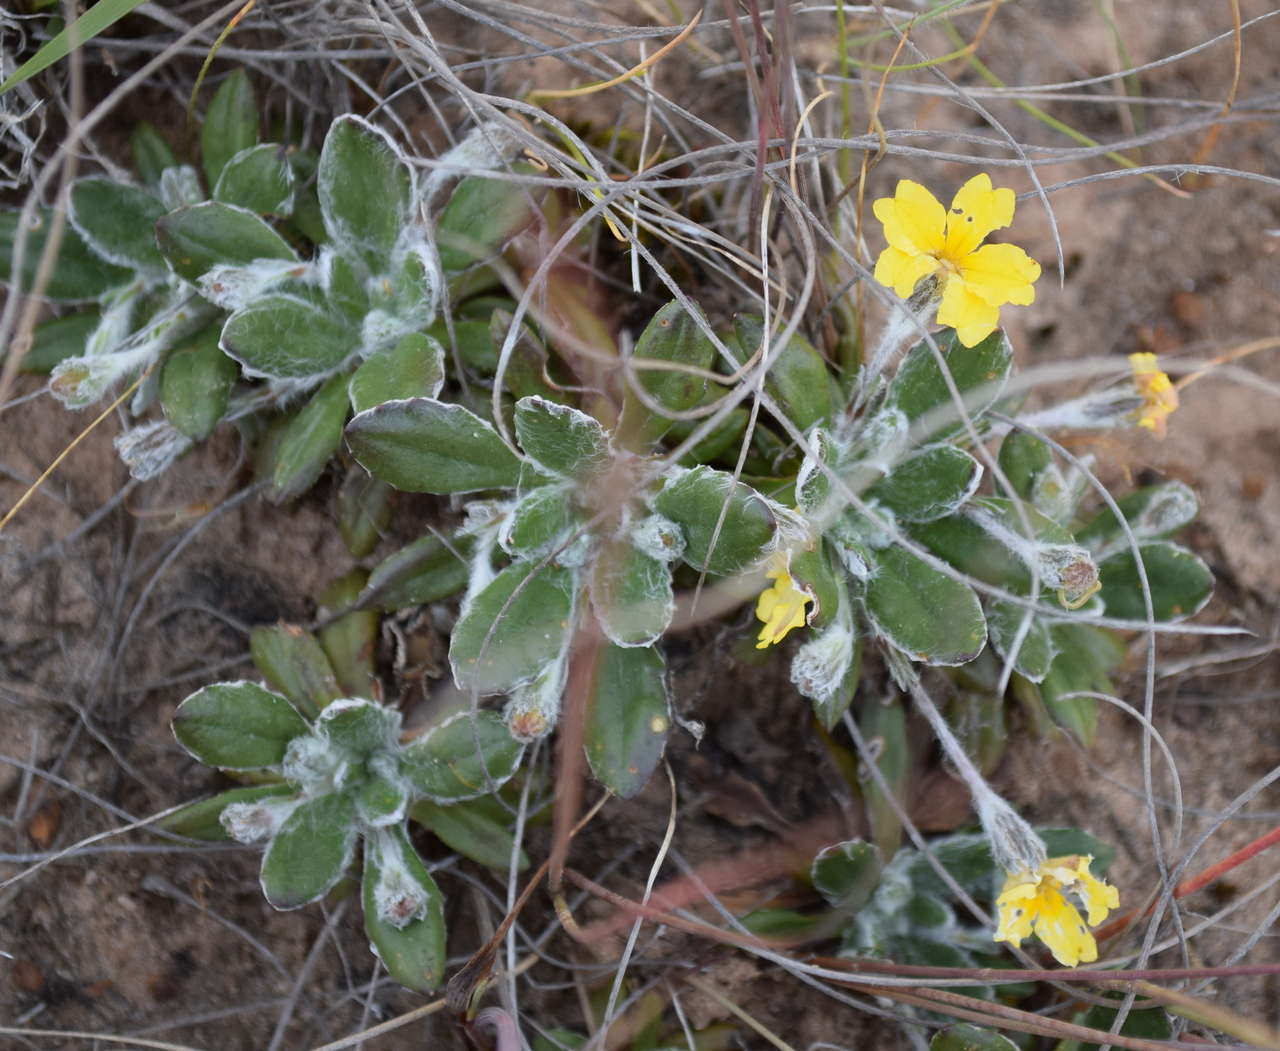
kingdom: Plantae
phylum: Tracheophyta
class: Magnoliopsida
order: Asterales
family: Goodeniaceae
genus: Goodenia
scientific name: Goodenia blackiana
